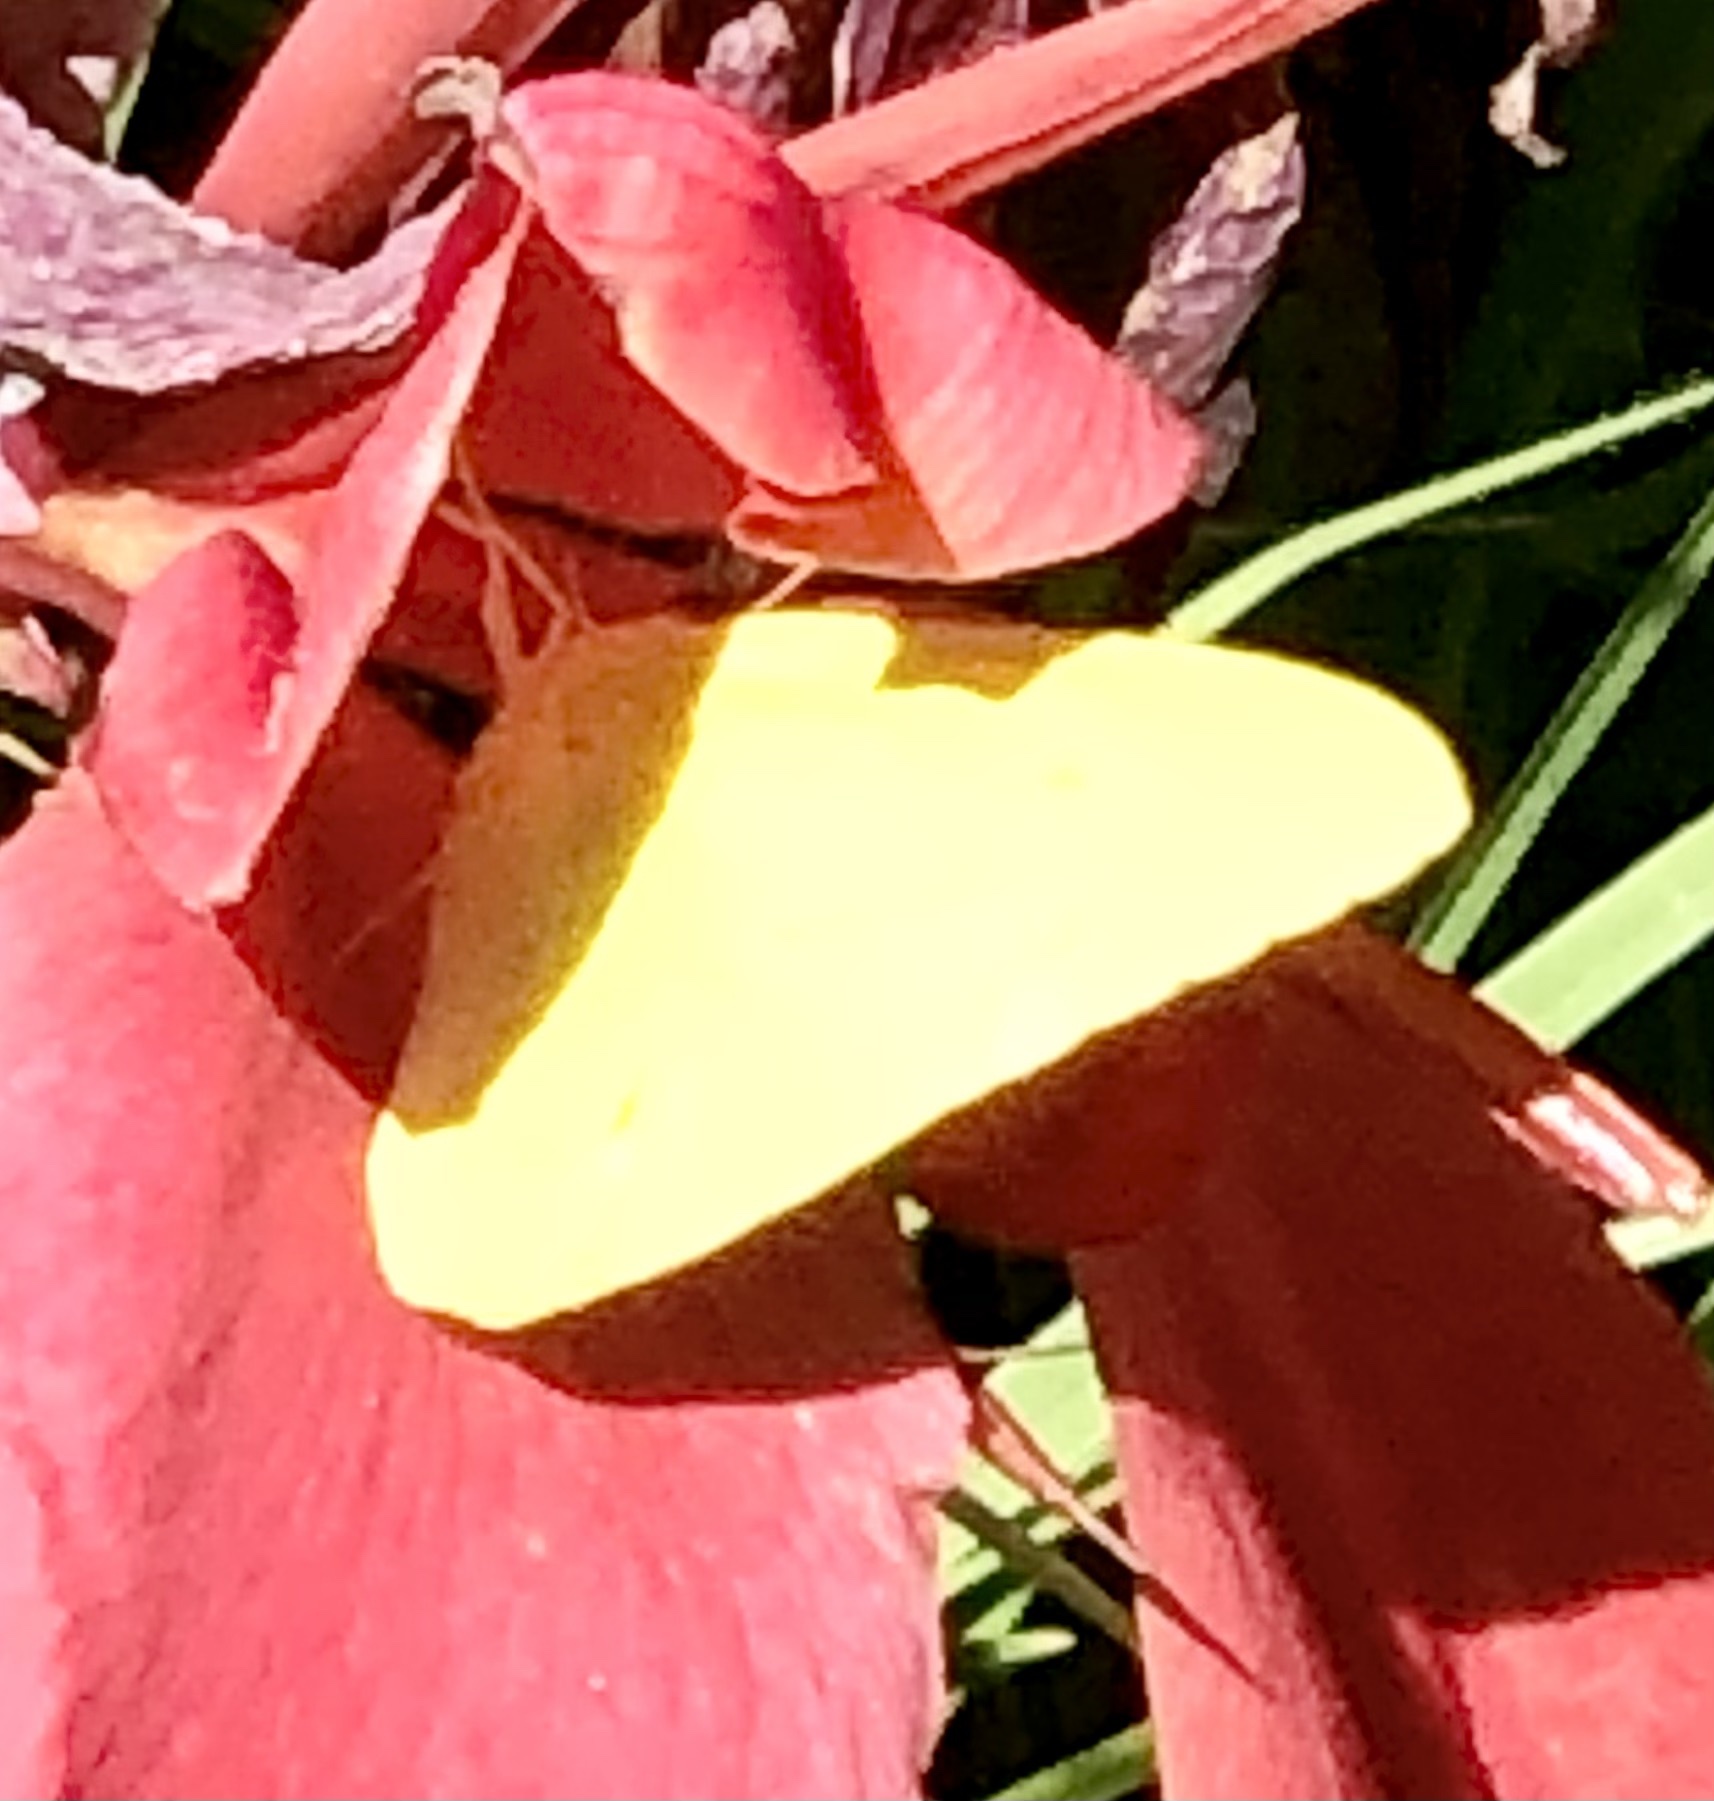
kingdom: Animalia
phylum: Arthropoda
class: Insecta
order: Lepidoptera
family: Pieridae
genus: Phoebis
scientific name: Phoebis sennae
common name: Cloudless sulphur
